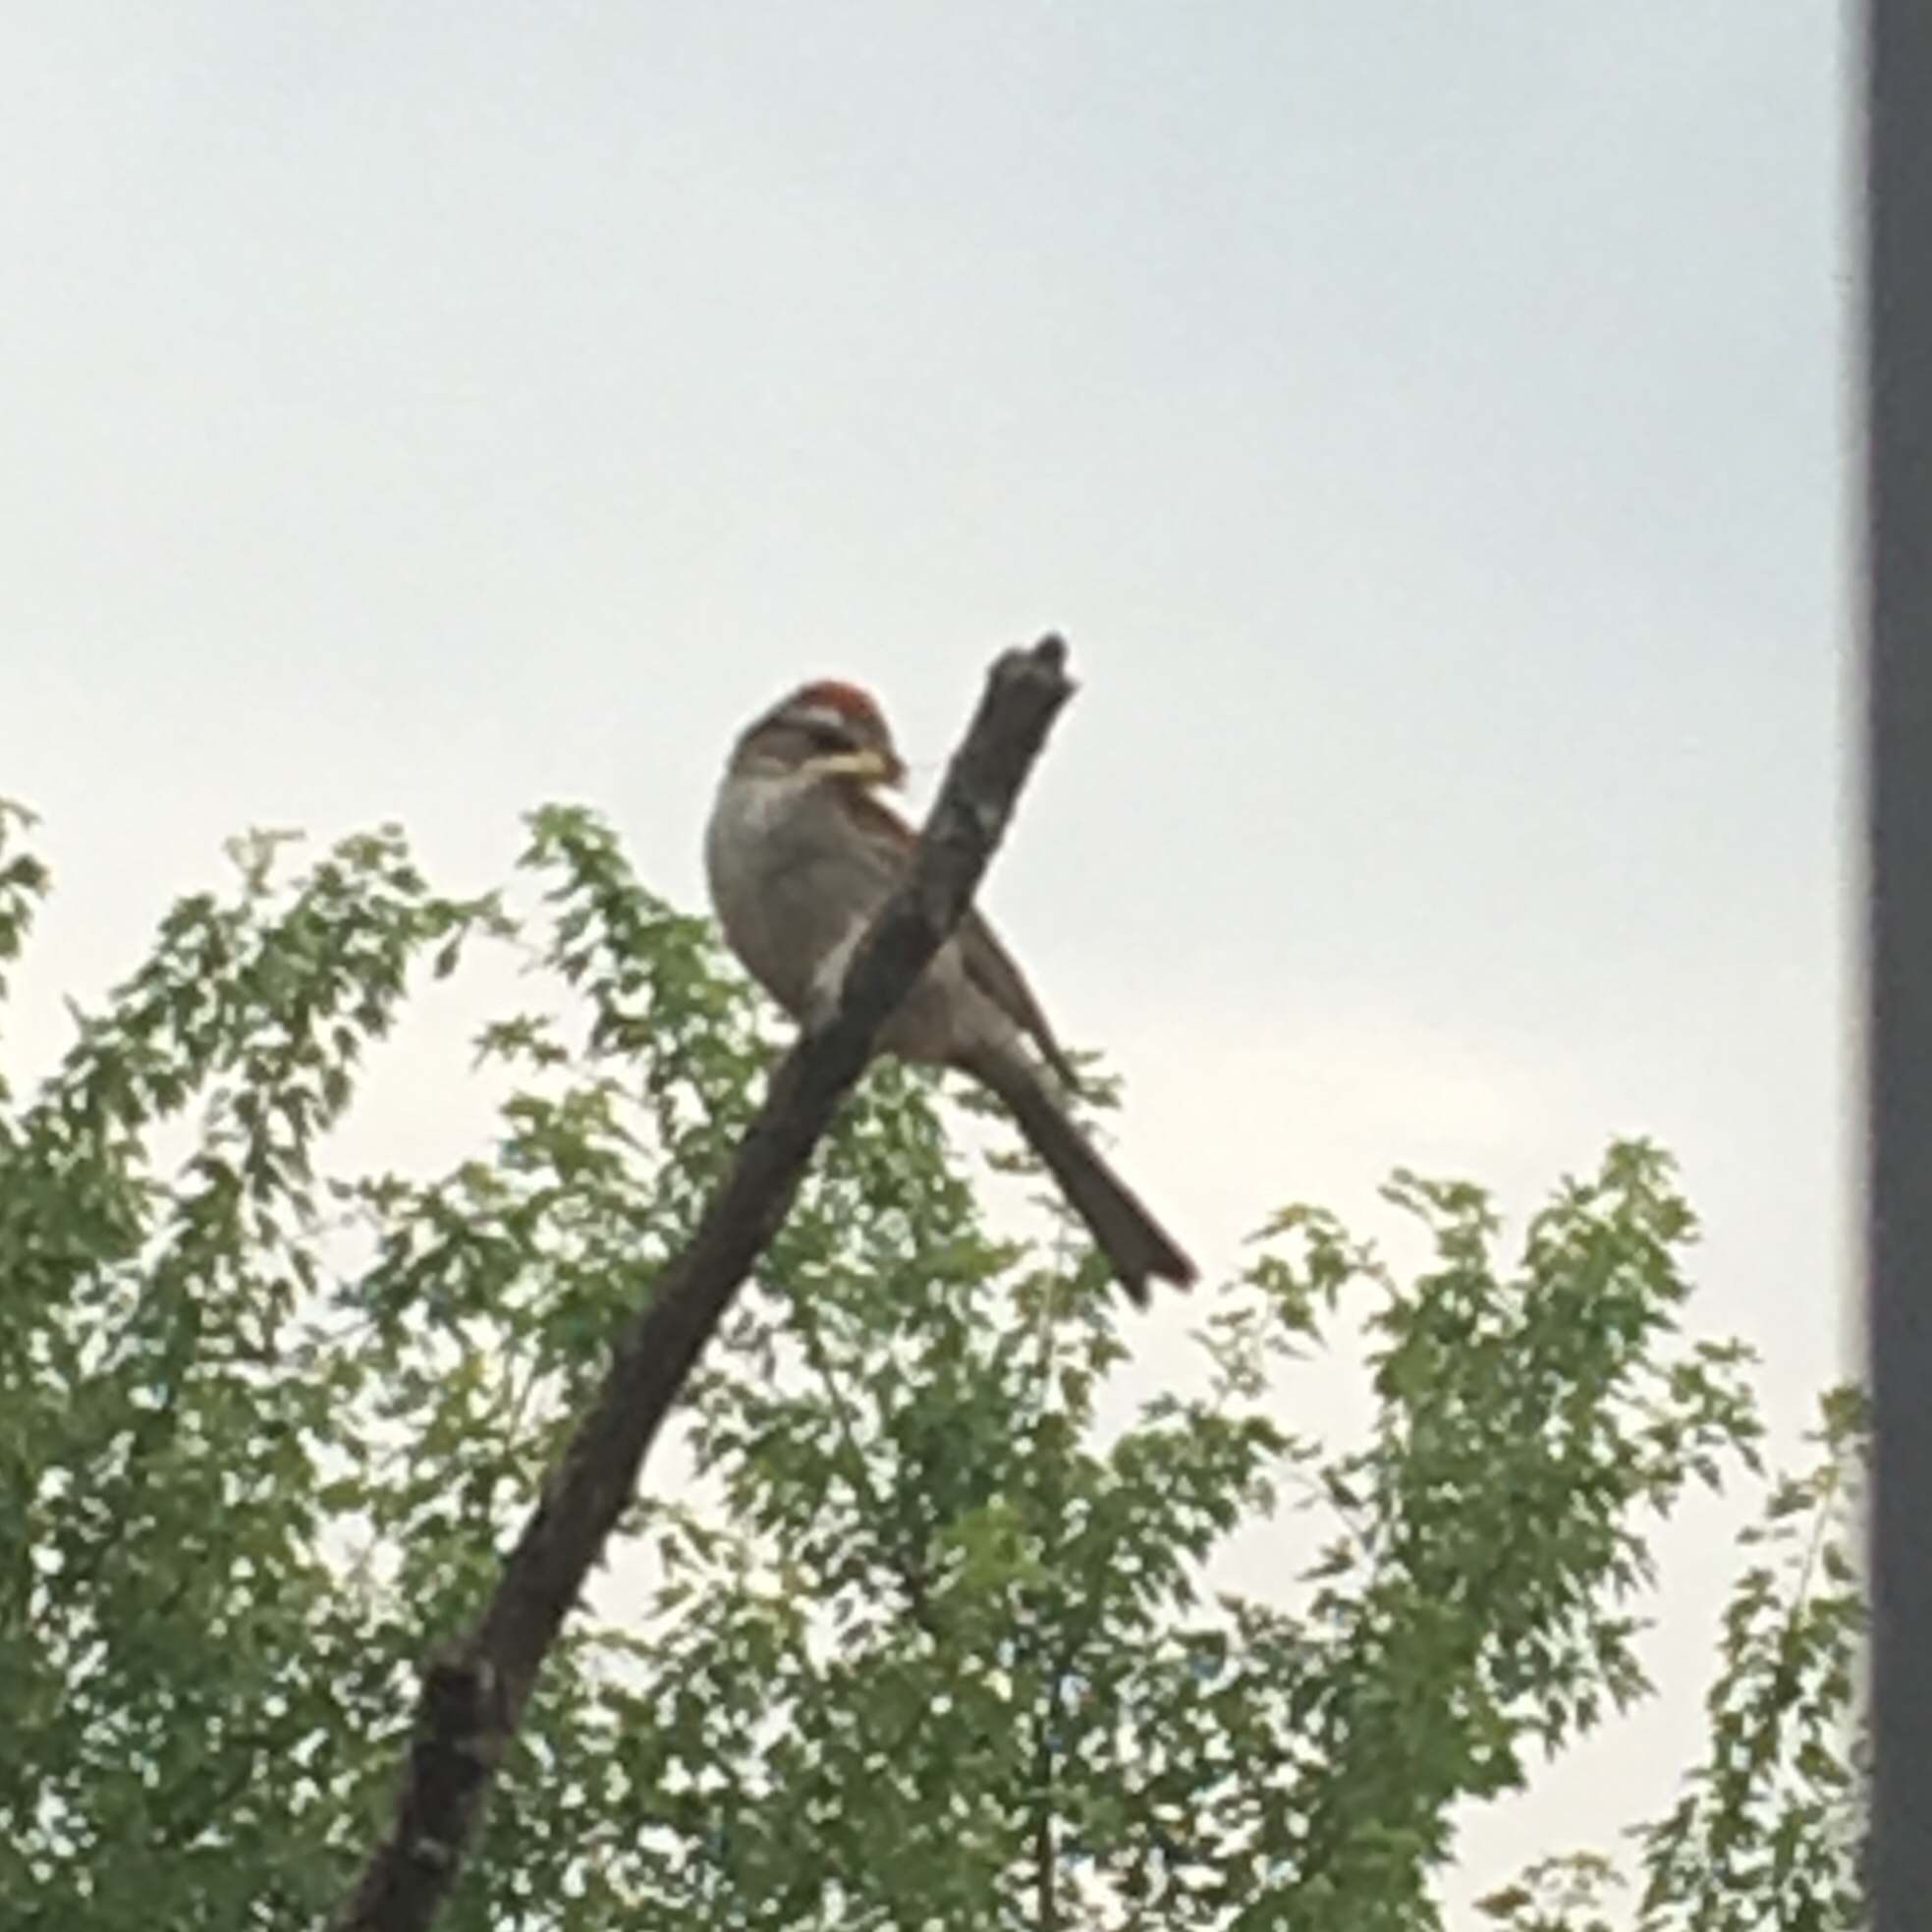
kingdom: Animalia
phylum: Chordata
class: Aves
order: Passeriformes
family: Passerellidae
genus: Spizella
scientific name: Spizella passerina
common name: Chipping sparrow
